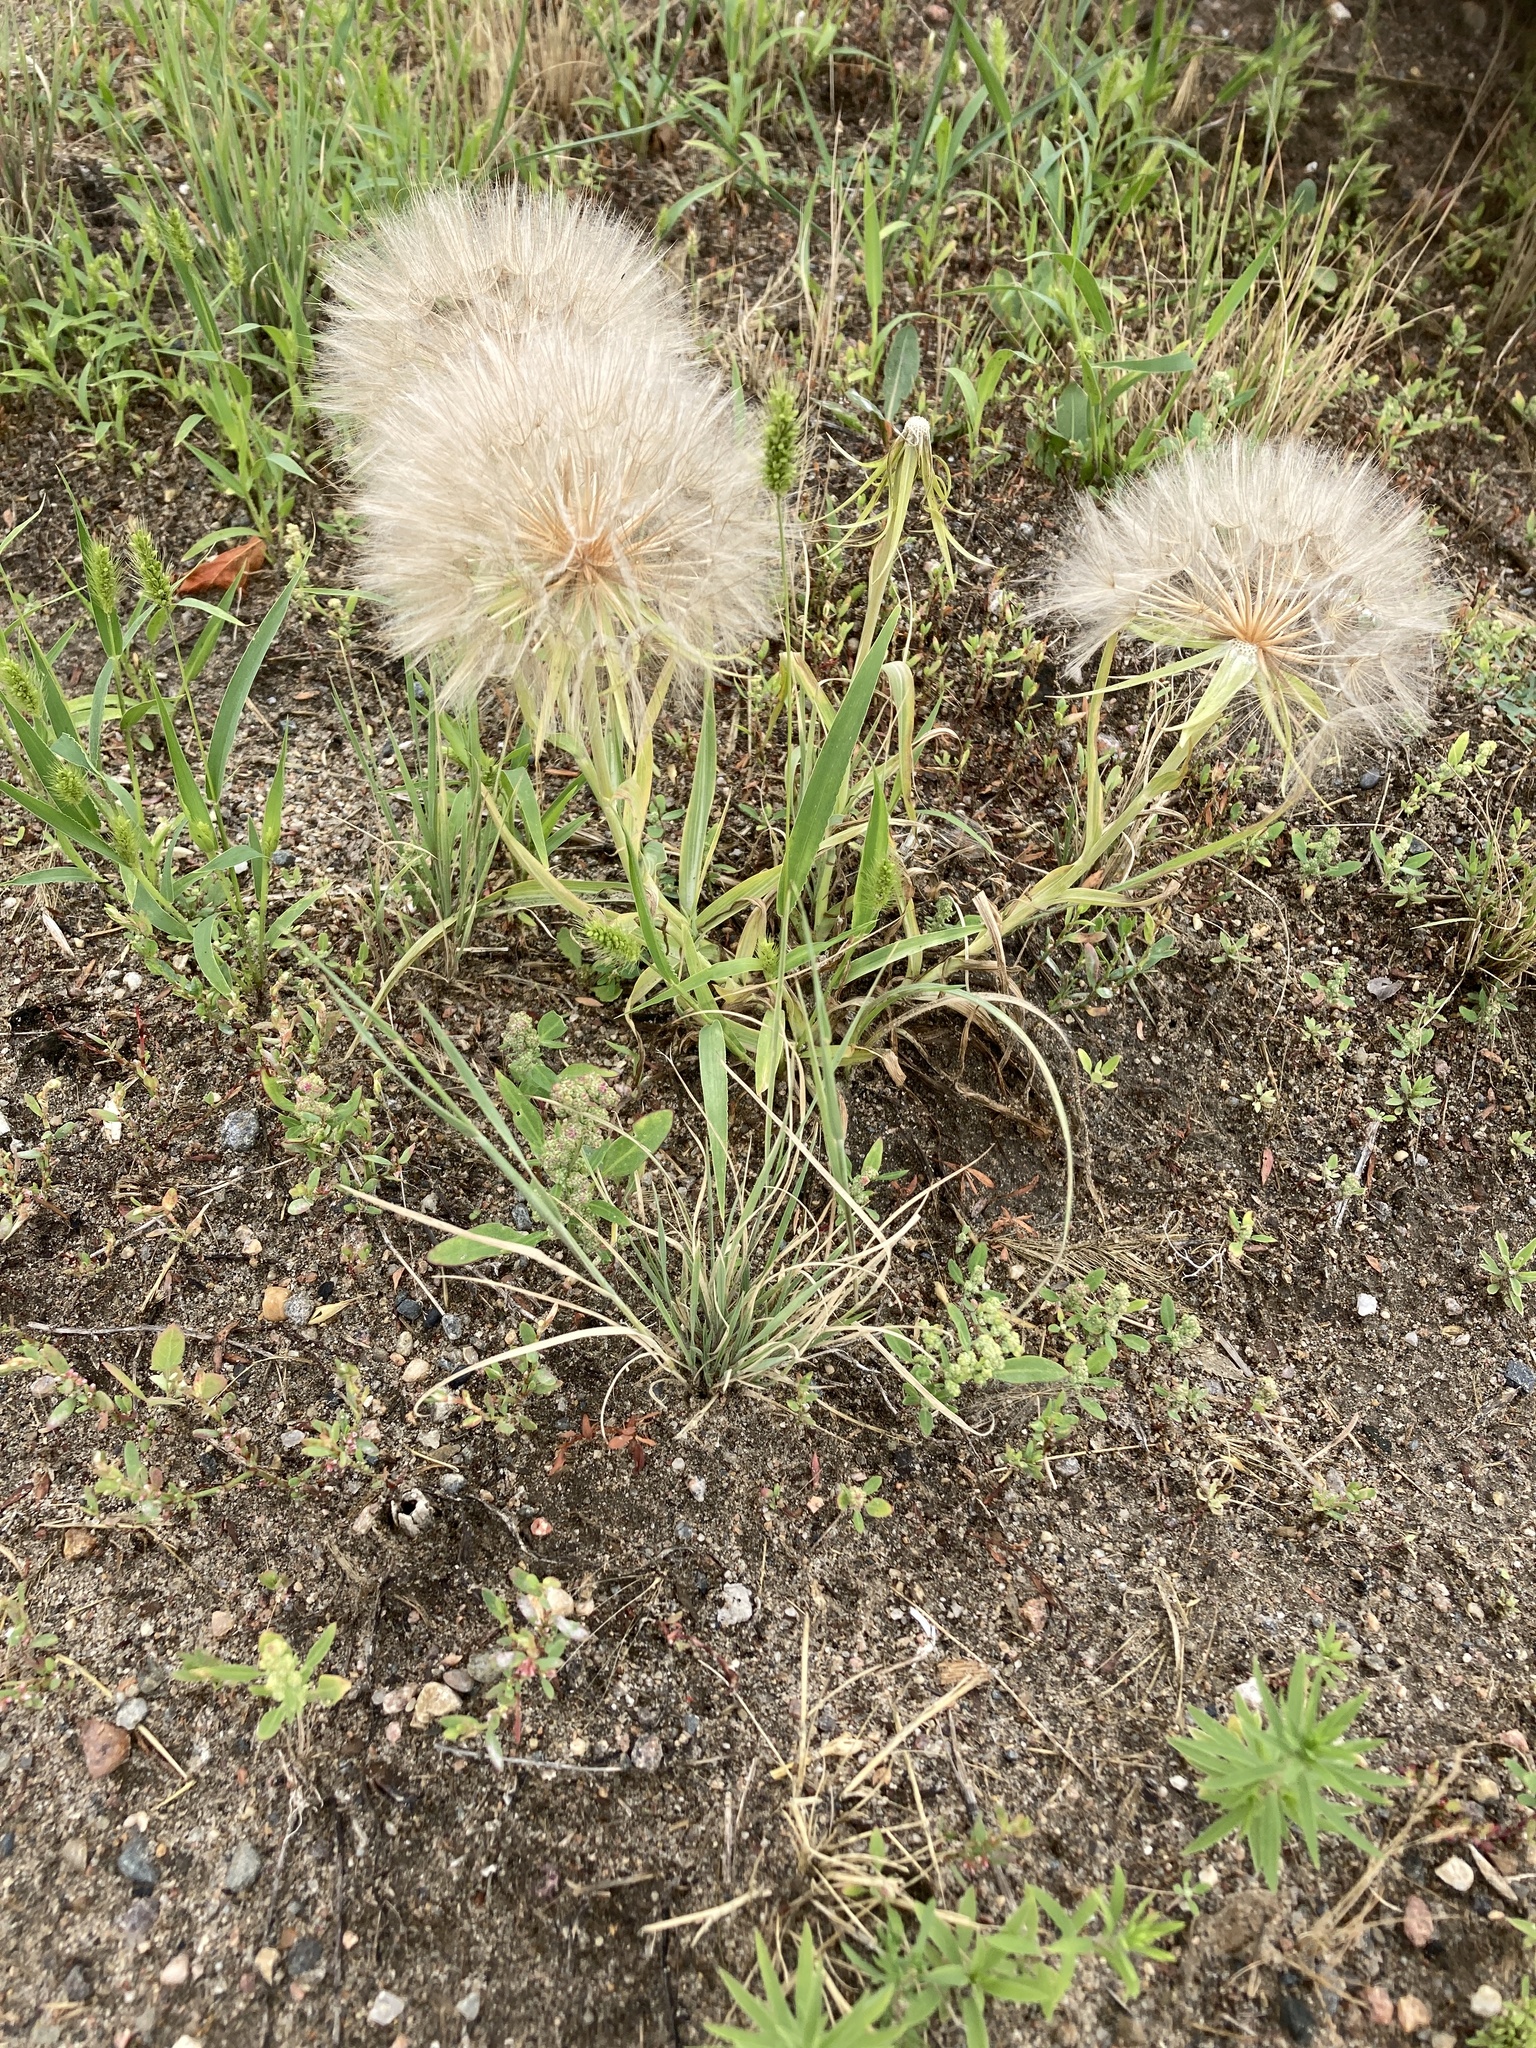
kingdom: Plantae
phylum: Tracheophyta
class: Magnoliopsida
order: Asterales
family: Asteraceae
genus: Tragopogon
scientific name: Tragopogon dubius
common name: Yellow salsify
